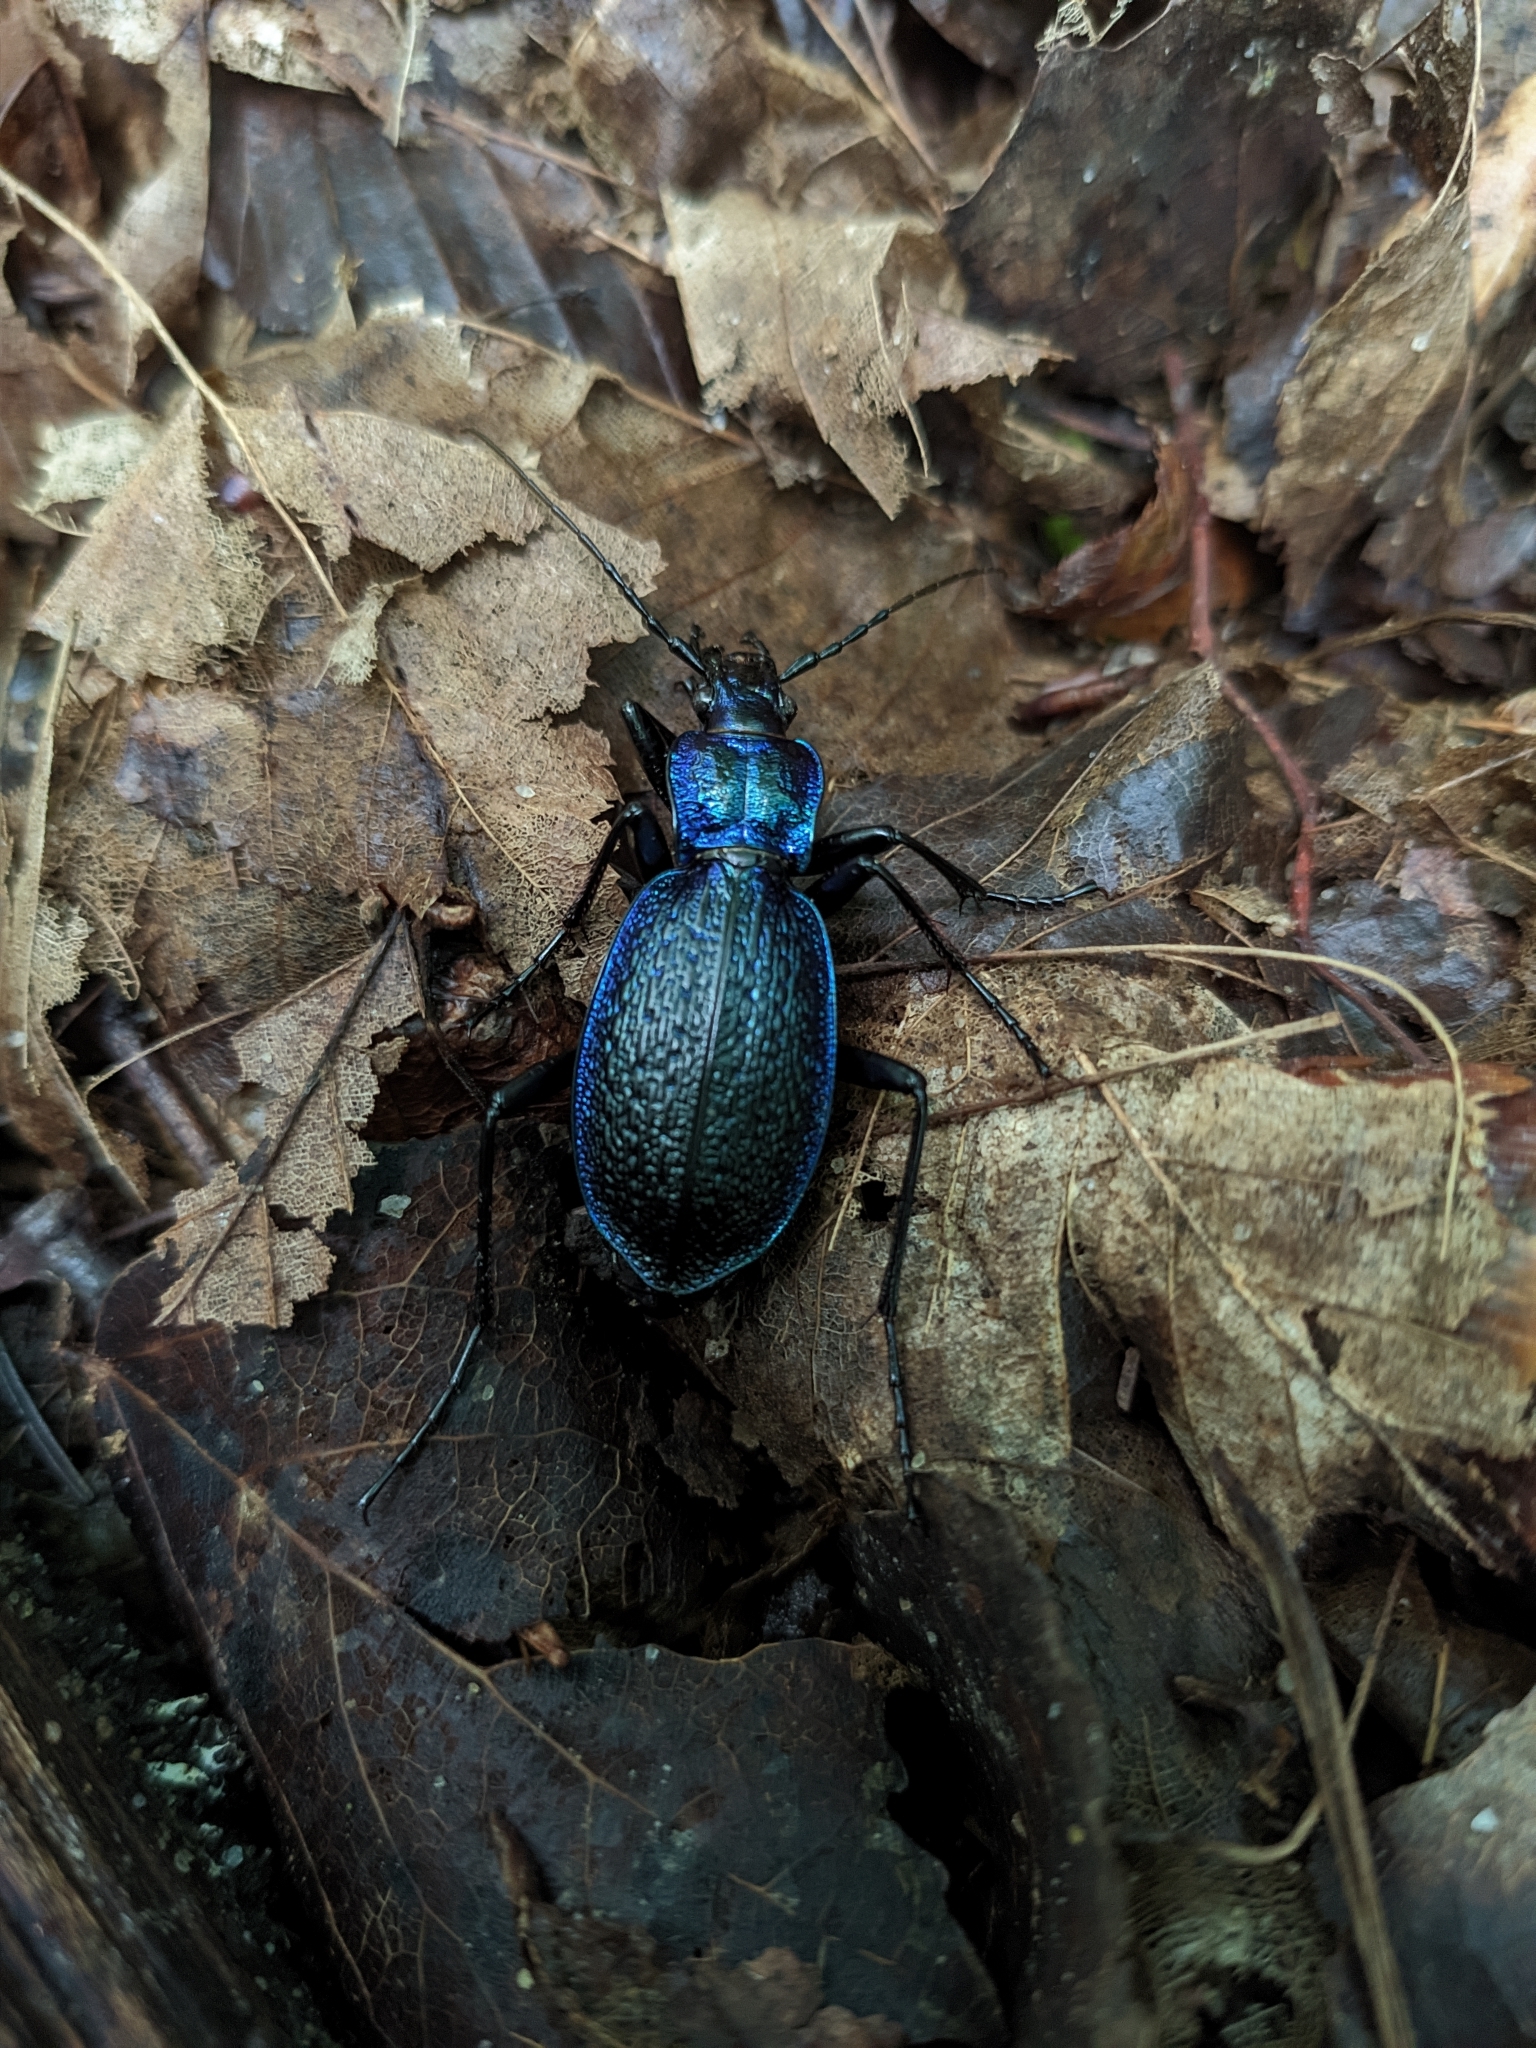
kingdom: Animalia
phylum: Arthropoda
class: Insecta
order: Coleoptera
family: Carabidae
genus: Carabus
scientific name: Carabus intricatus
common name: Blue ground beetle
